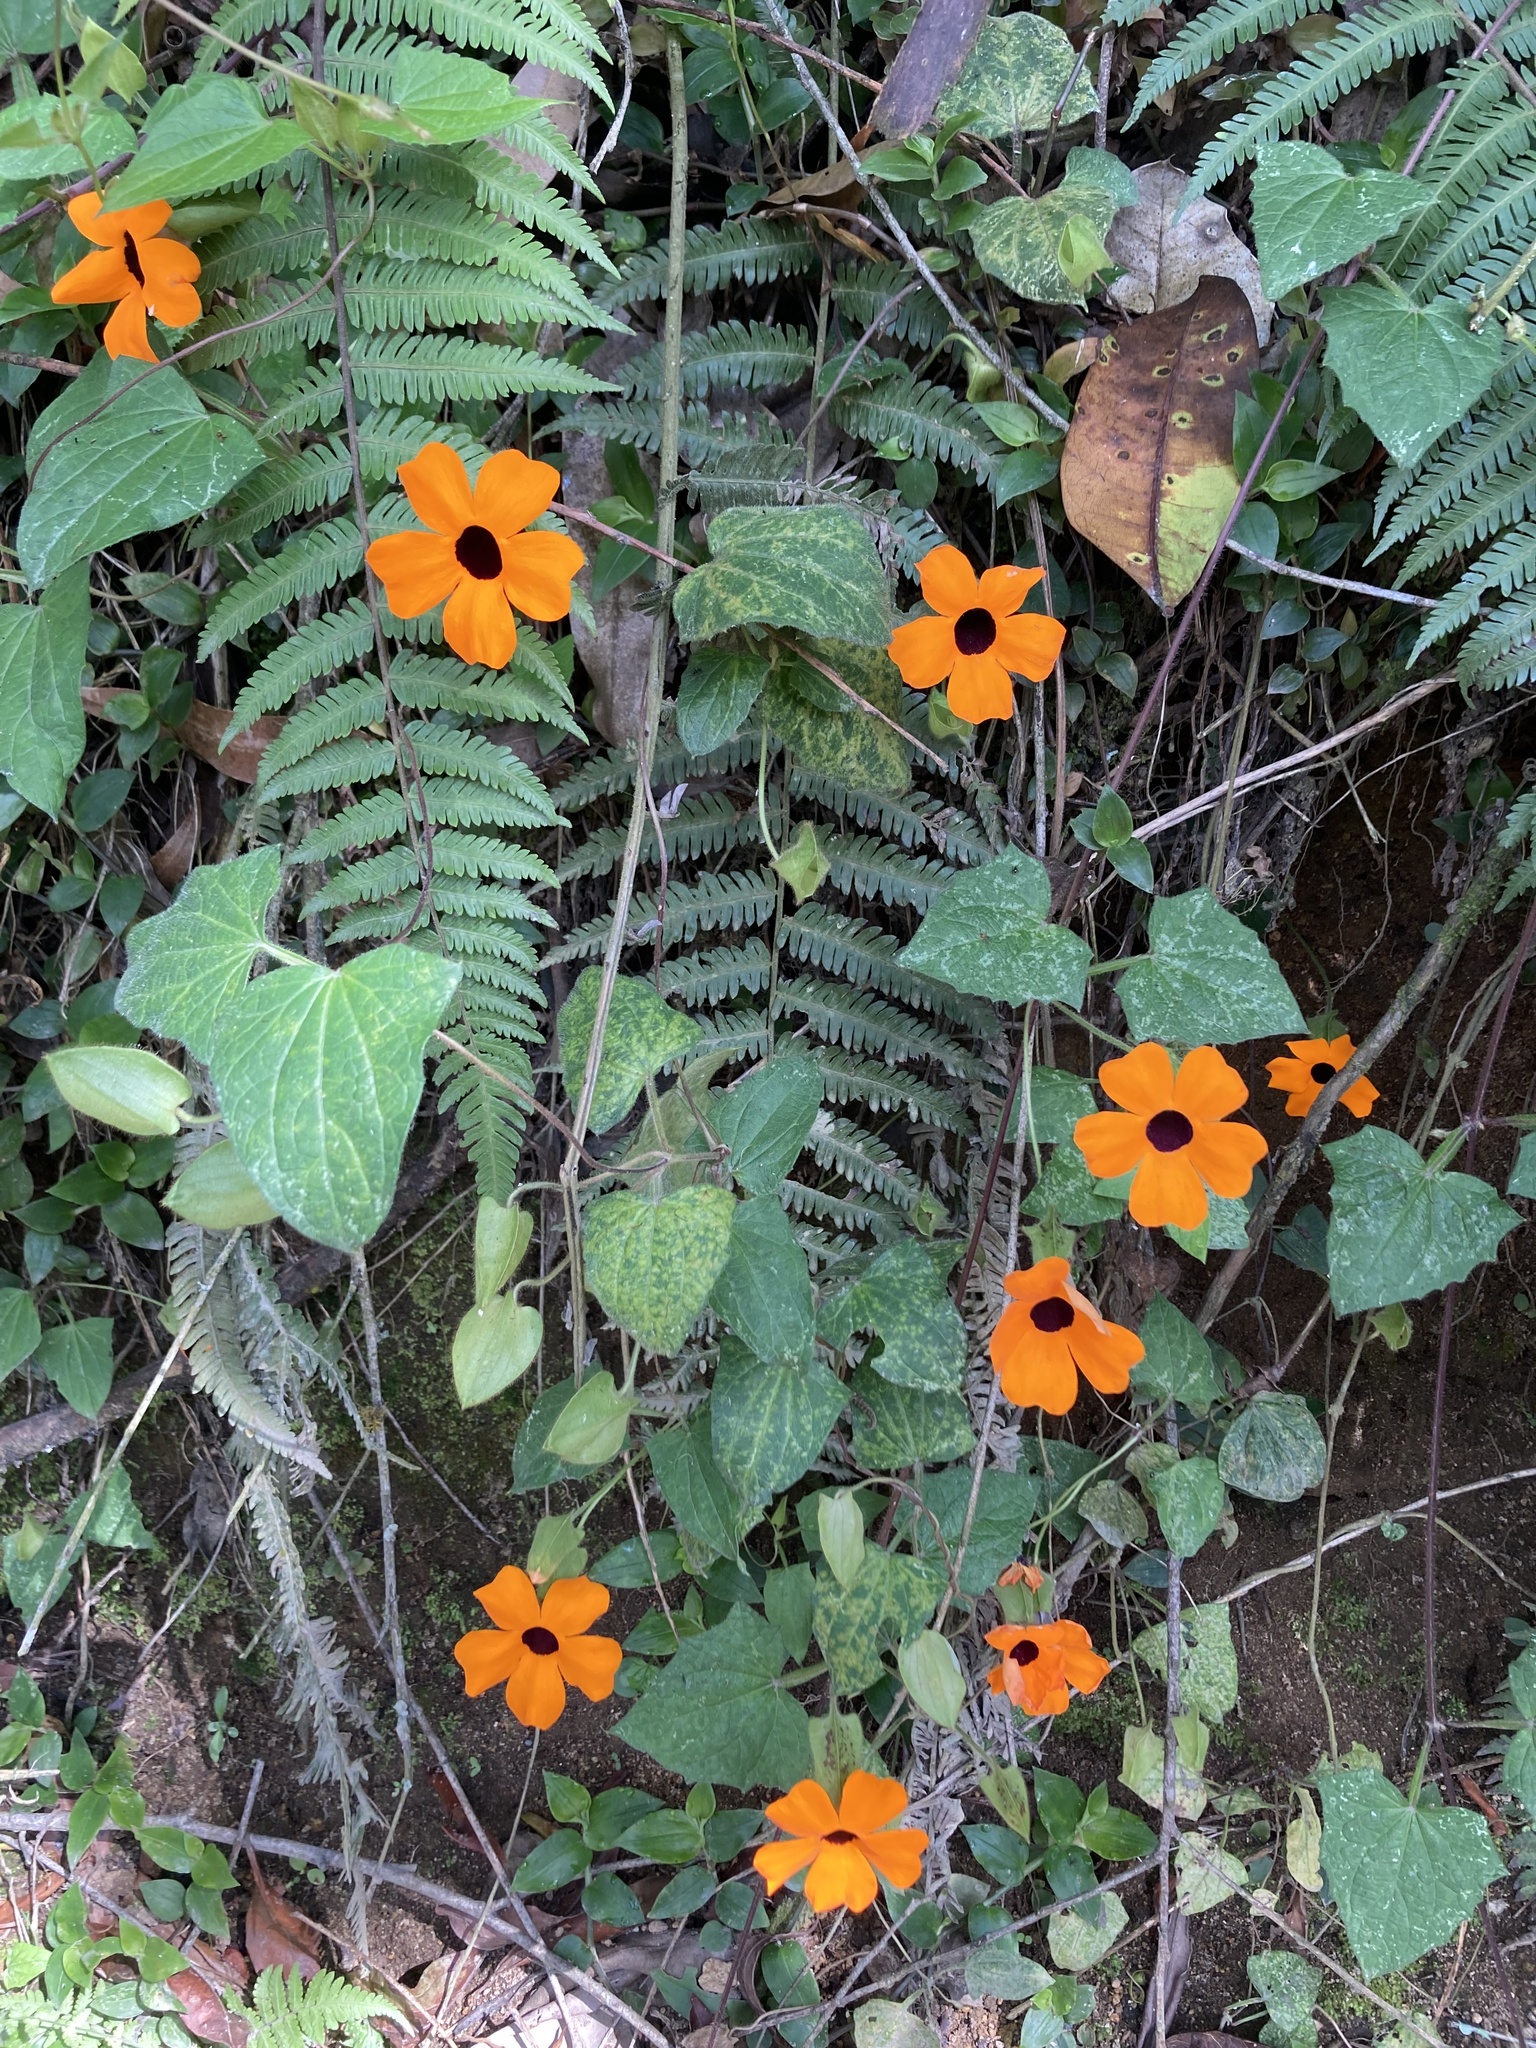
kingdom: Plantae
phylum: Tracheophyta
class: Magnoliopsida
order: Lamiales
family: Acanthaceae
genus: Thunbergia
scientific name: Thunbergia alata
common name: Blackeyed susan vine
